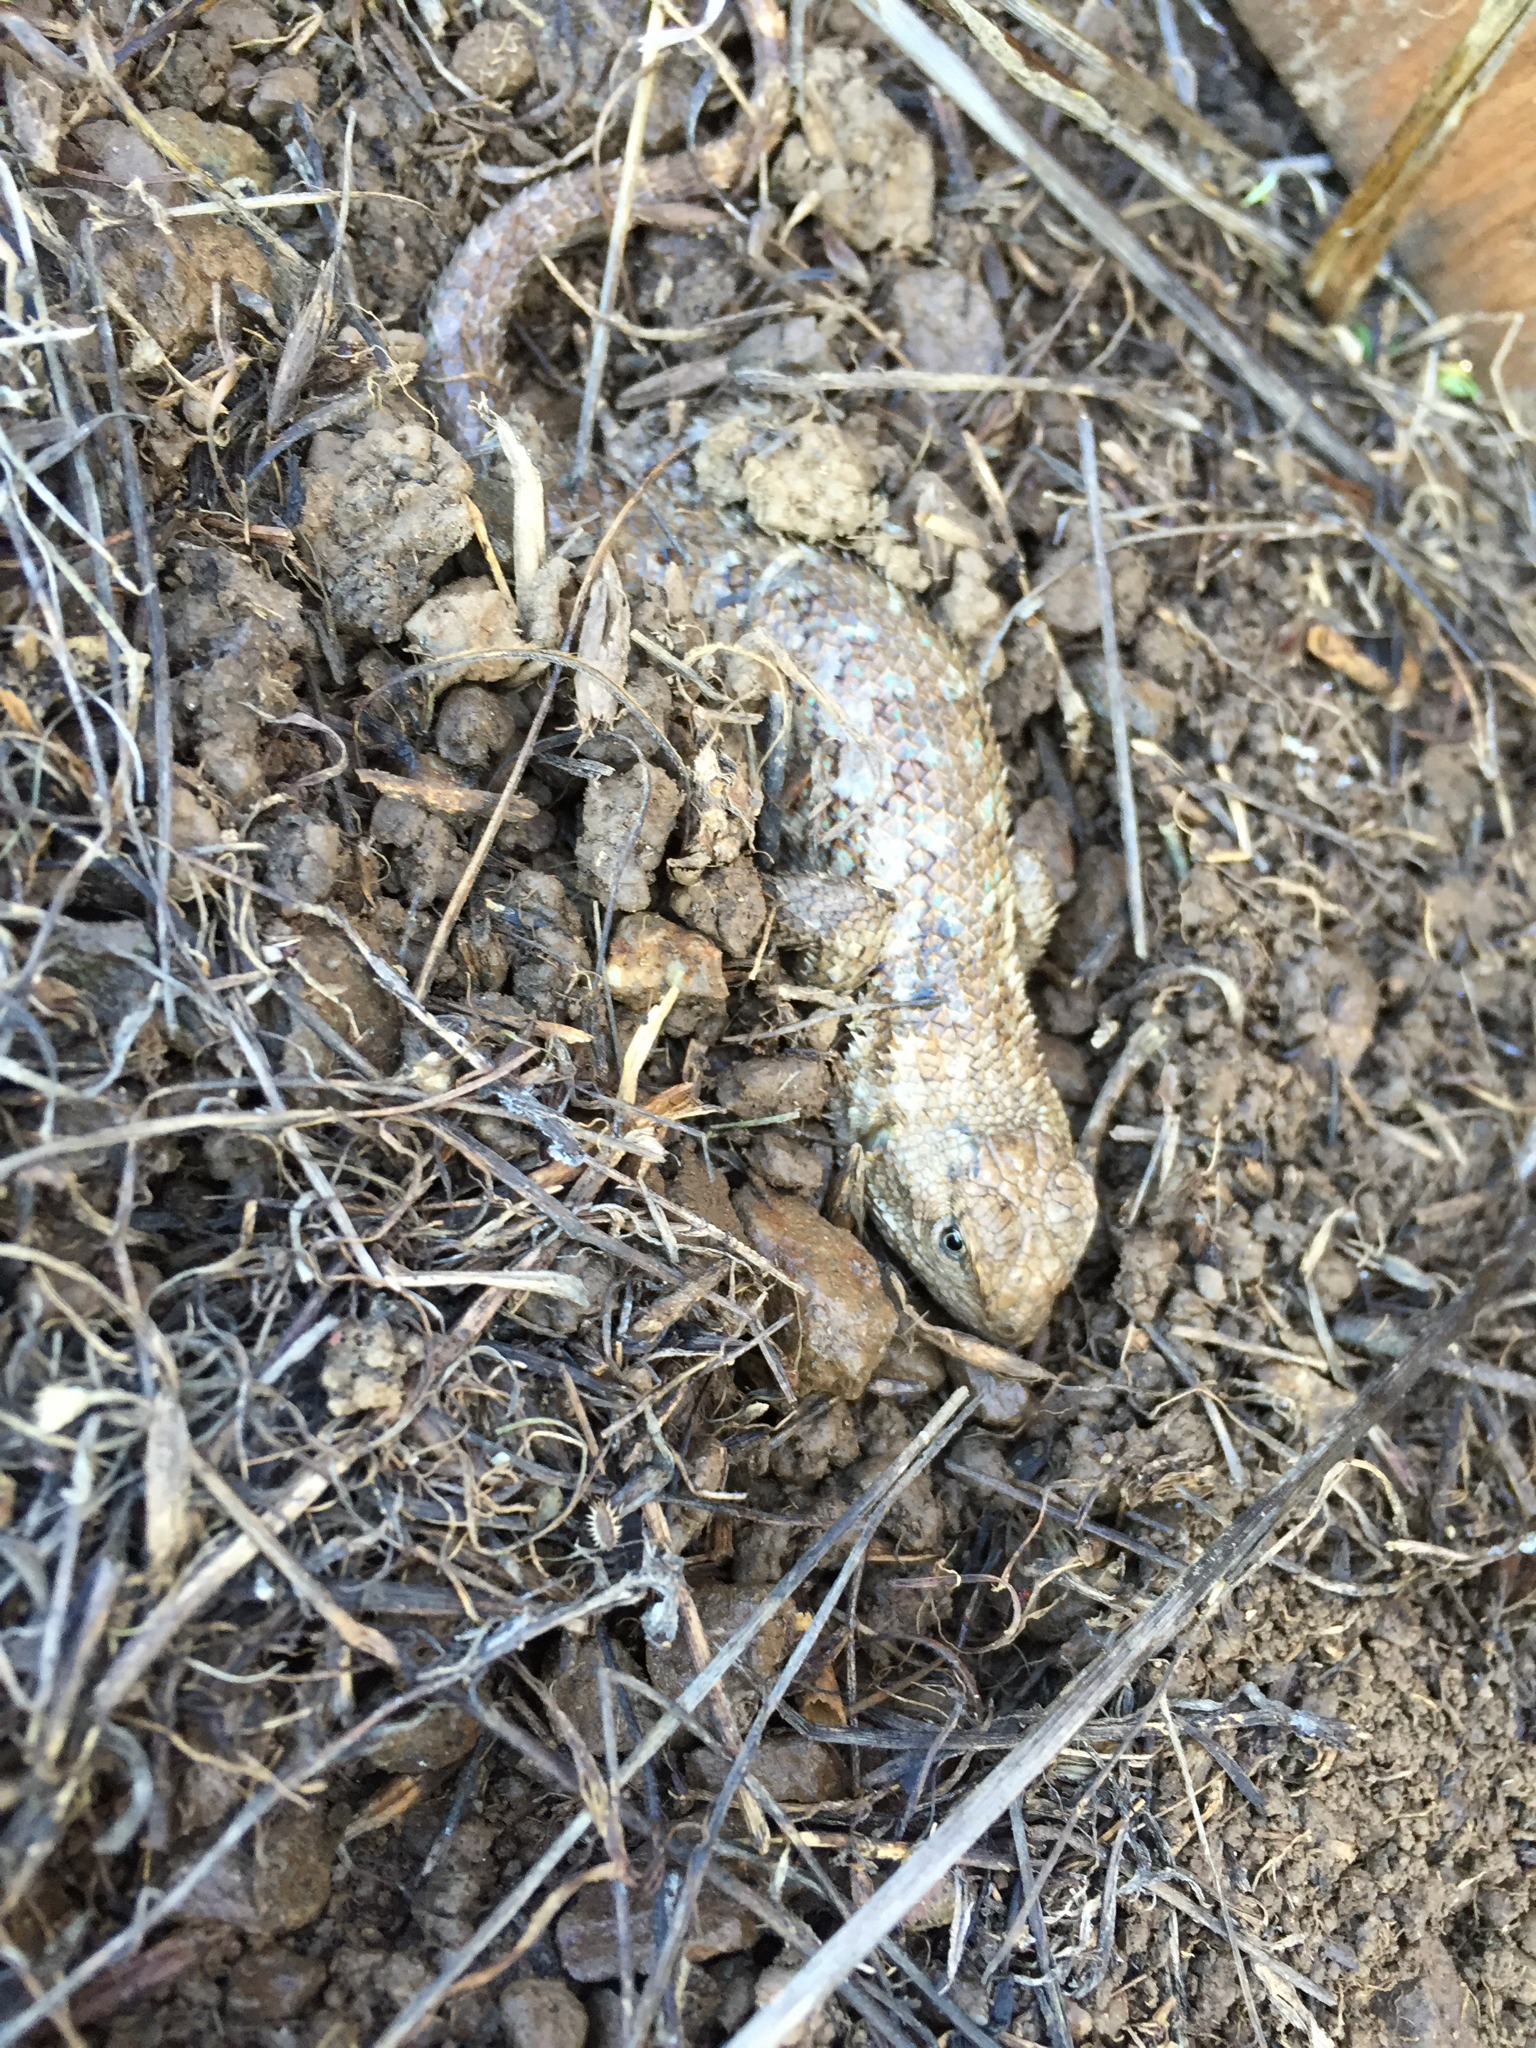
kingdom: Animalia
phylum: Chordata
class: Squamata
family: Phrynosomatidae
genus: Sceloporus
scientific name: Sceloporus occidentalis
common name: Western fence lizard
